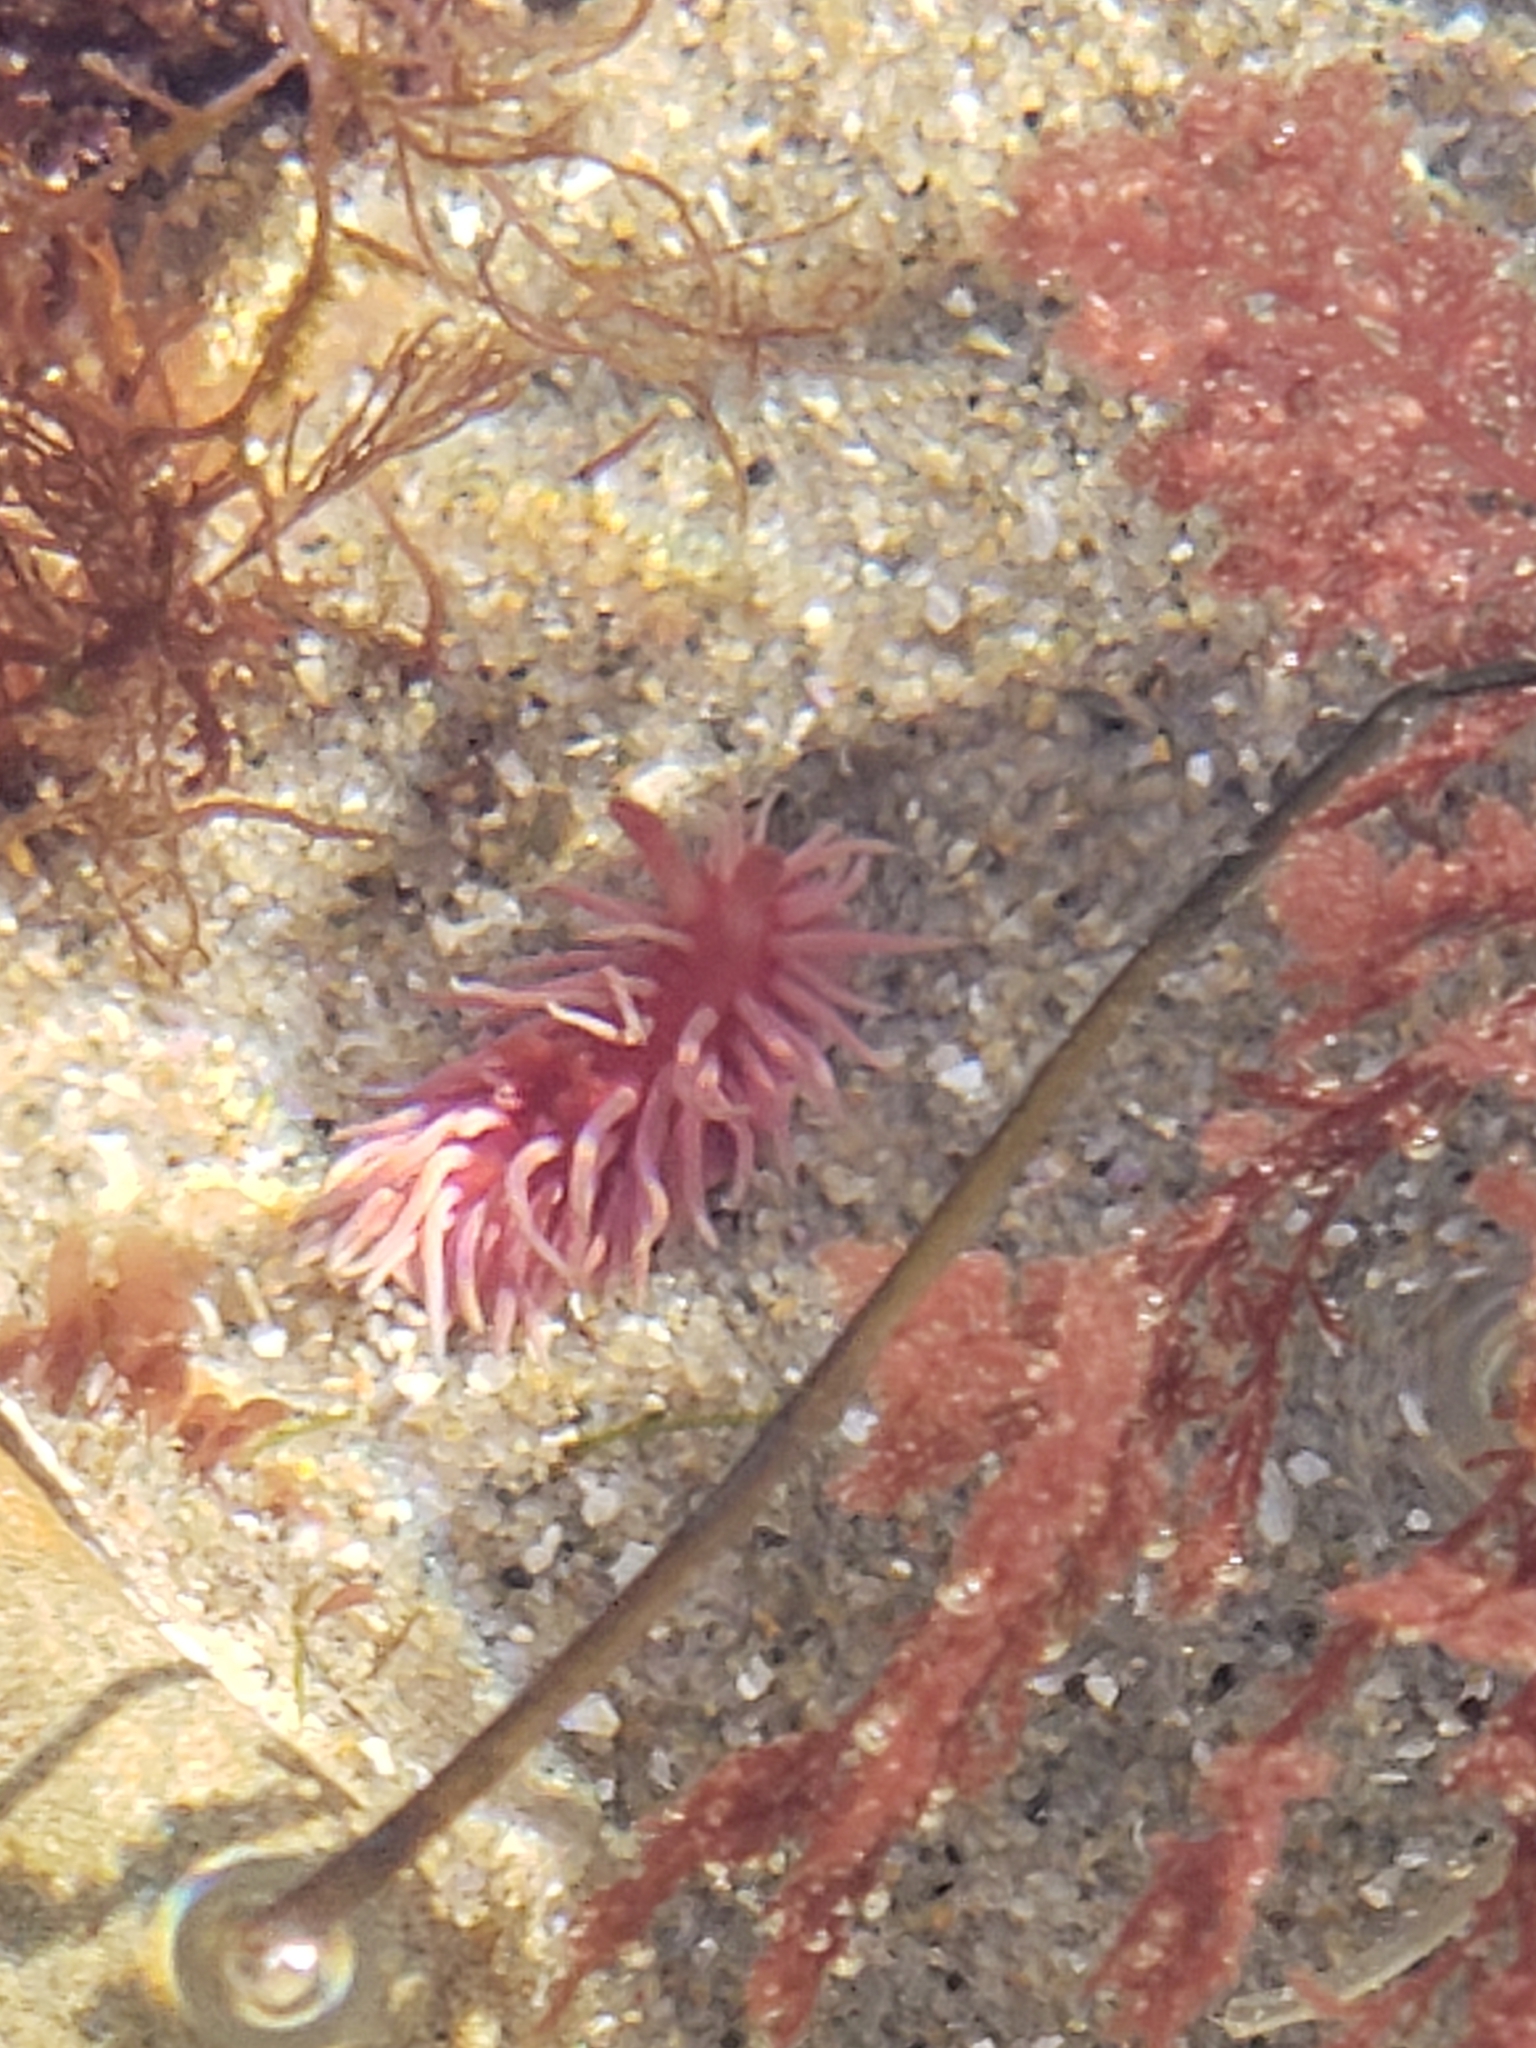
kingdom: Animalia
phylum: Mollusca
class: Gastropoda
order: Nudibranchia
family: Goniodorididae
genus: Okenia
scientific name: Okenia
